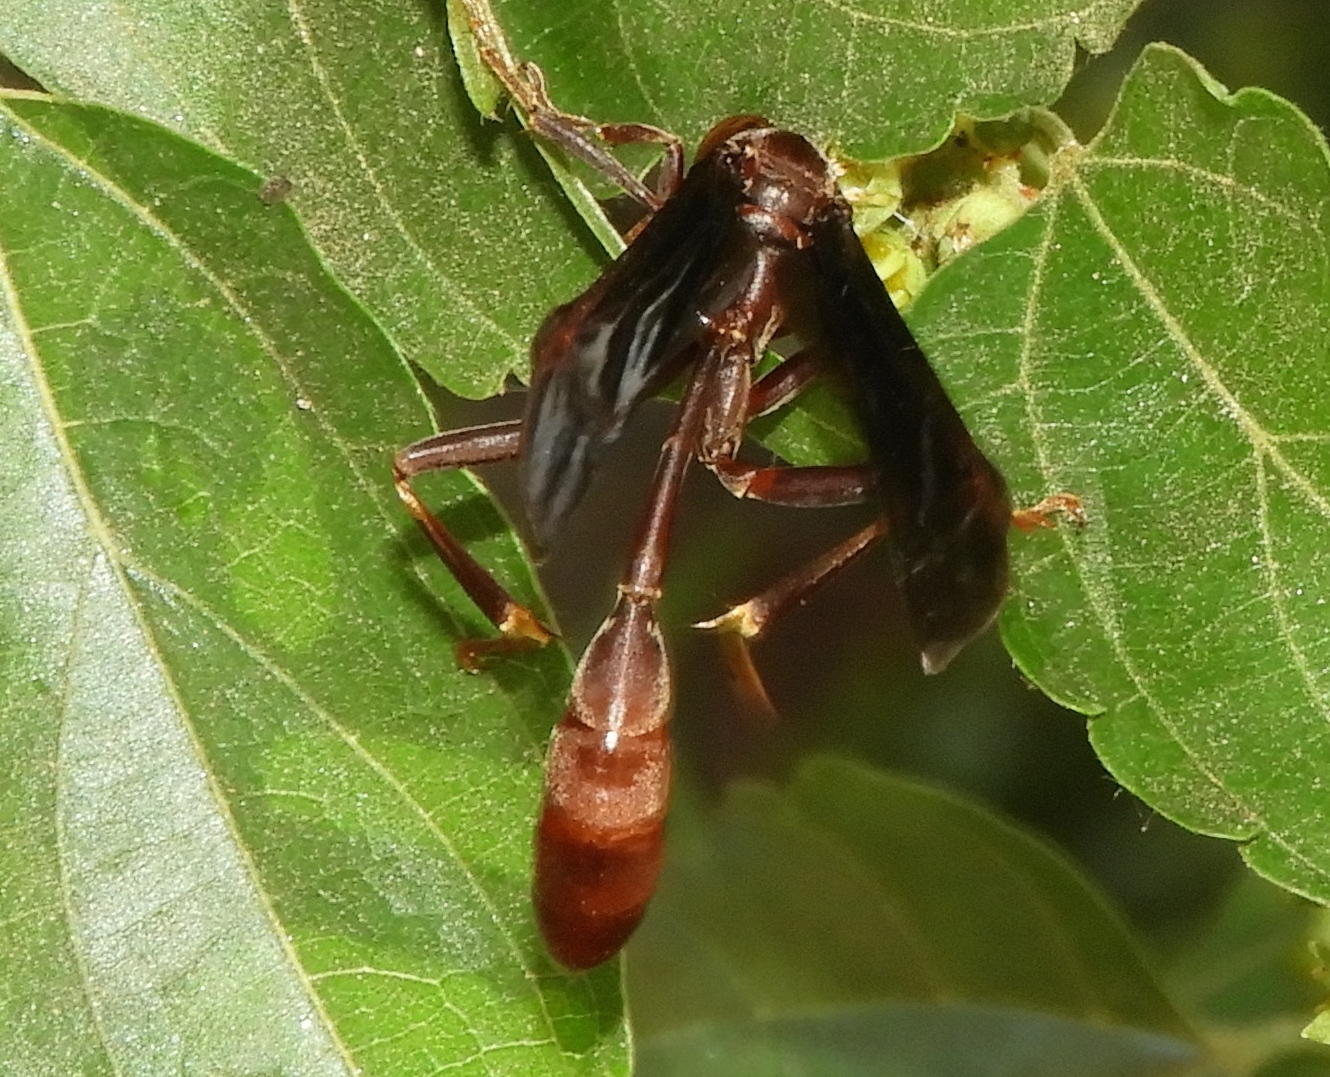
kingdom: Animalia
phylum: Arthropoda
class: Insecta
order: Hymenoptera
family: Vespidae
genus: Mischocyttarus
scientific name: Mischocyttarus melanarius
